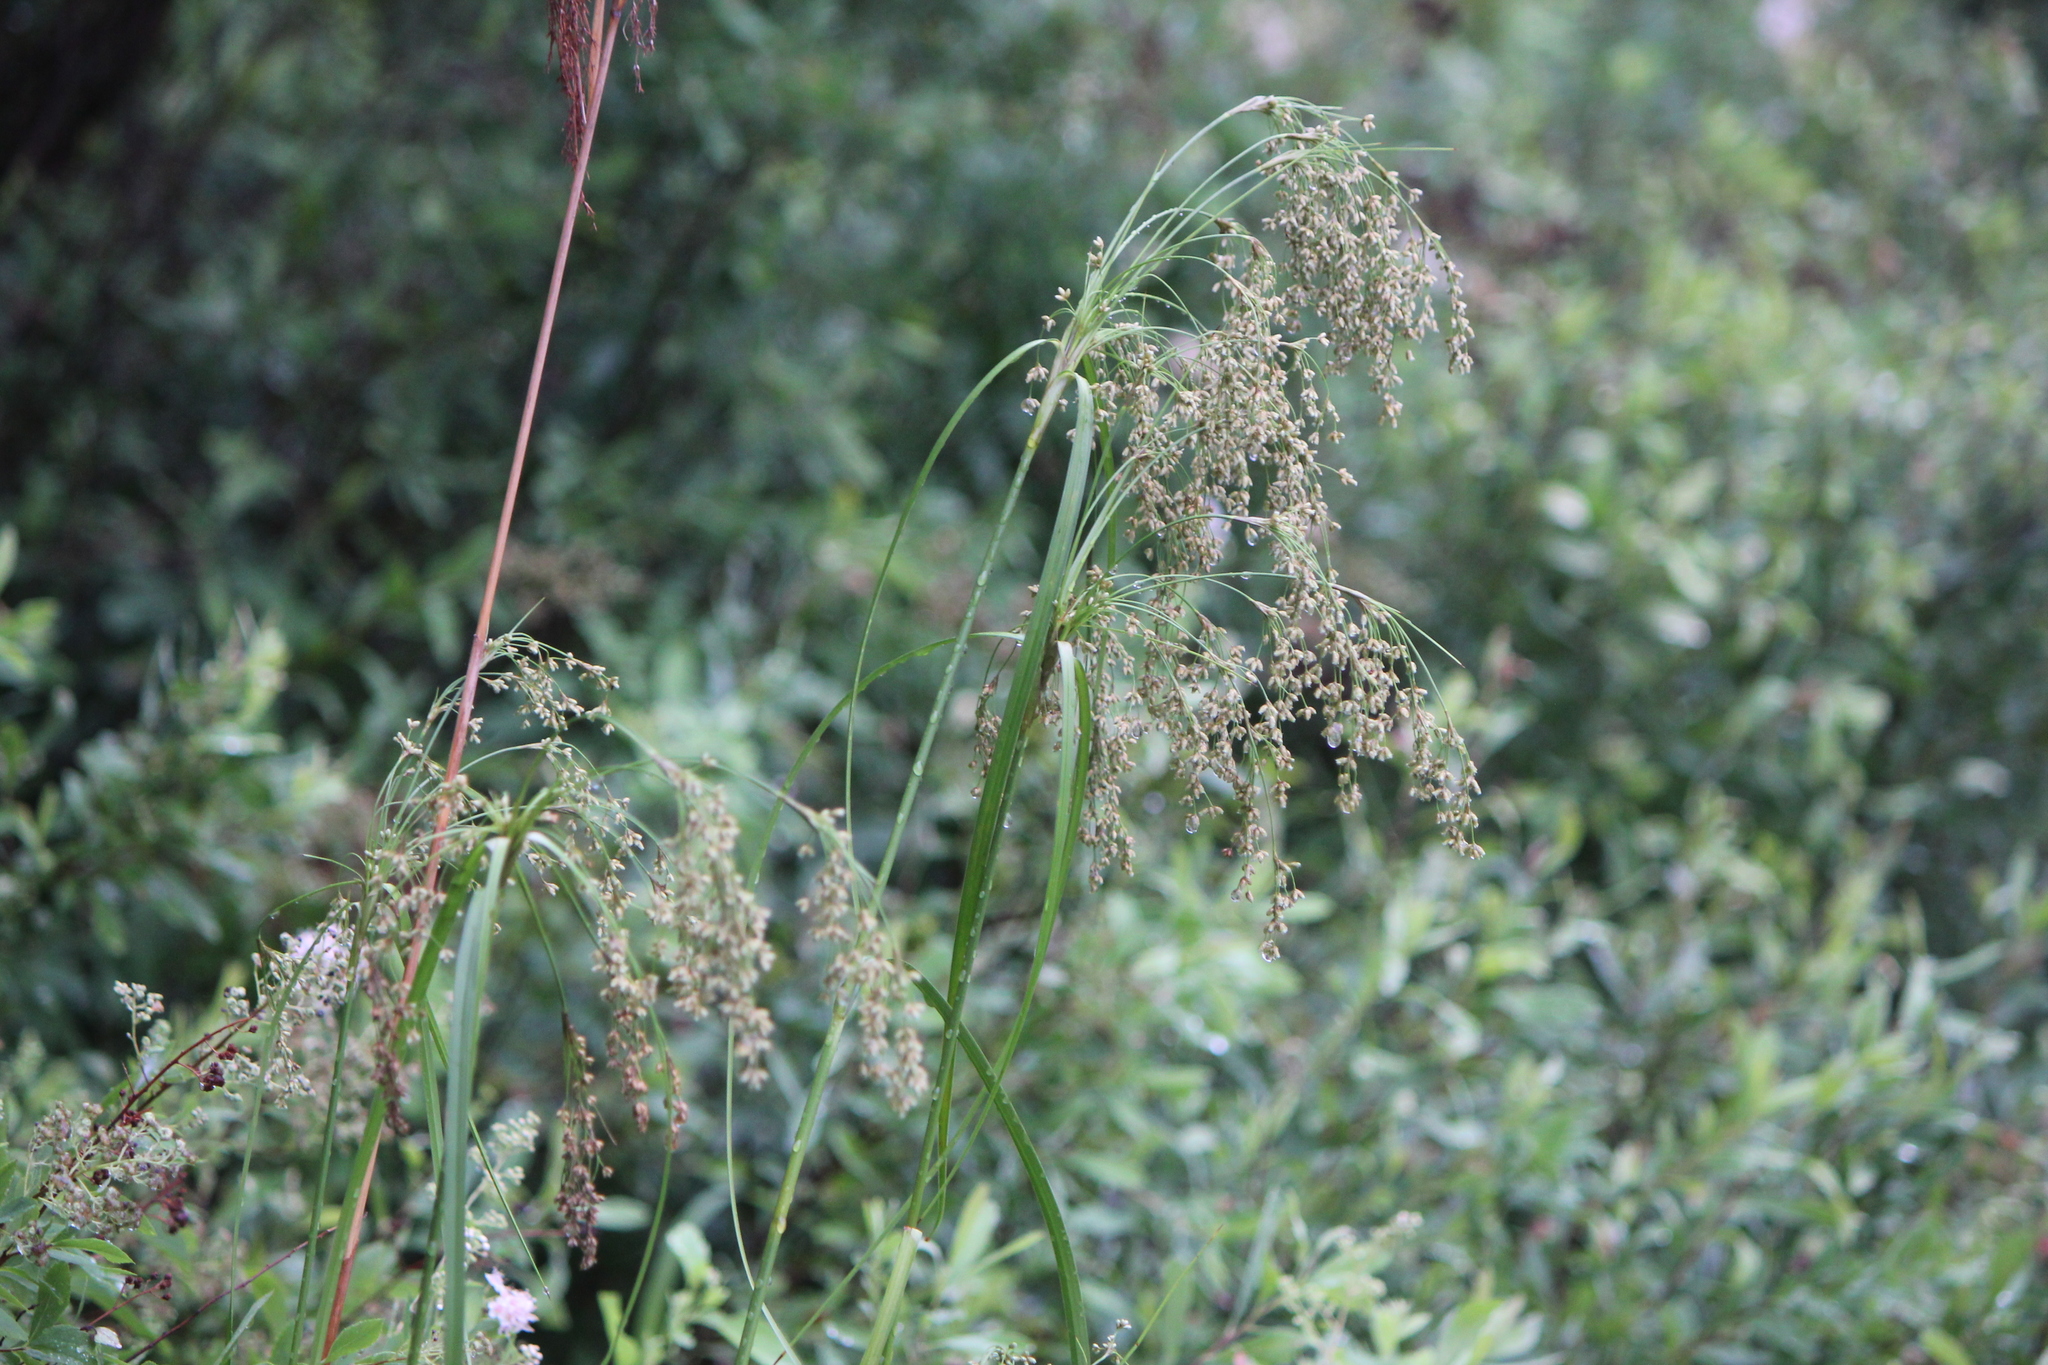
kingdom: Plantae
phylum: Tracheophyta
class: Liliopsida
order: Poales
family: Cyperaceae
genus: Scirpus
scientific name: Scirpus cyperinus
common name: Black-sheathed bulrush
